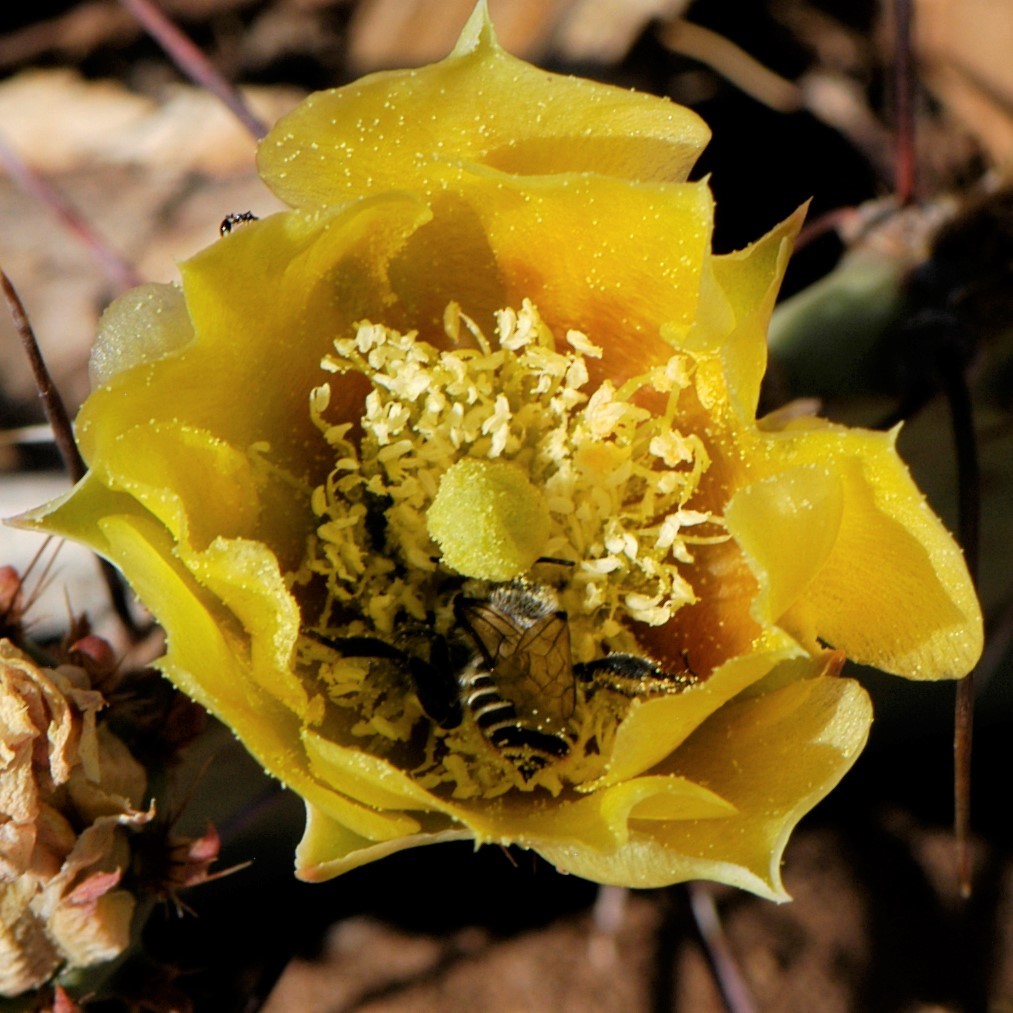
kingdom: Animalia
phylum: Arthropoda
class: Insecta
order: Hymenoptera
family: Megachilidae
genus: Lithurgopsis
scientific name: Lithurgopsis apicalis
